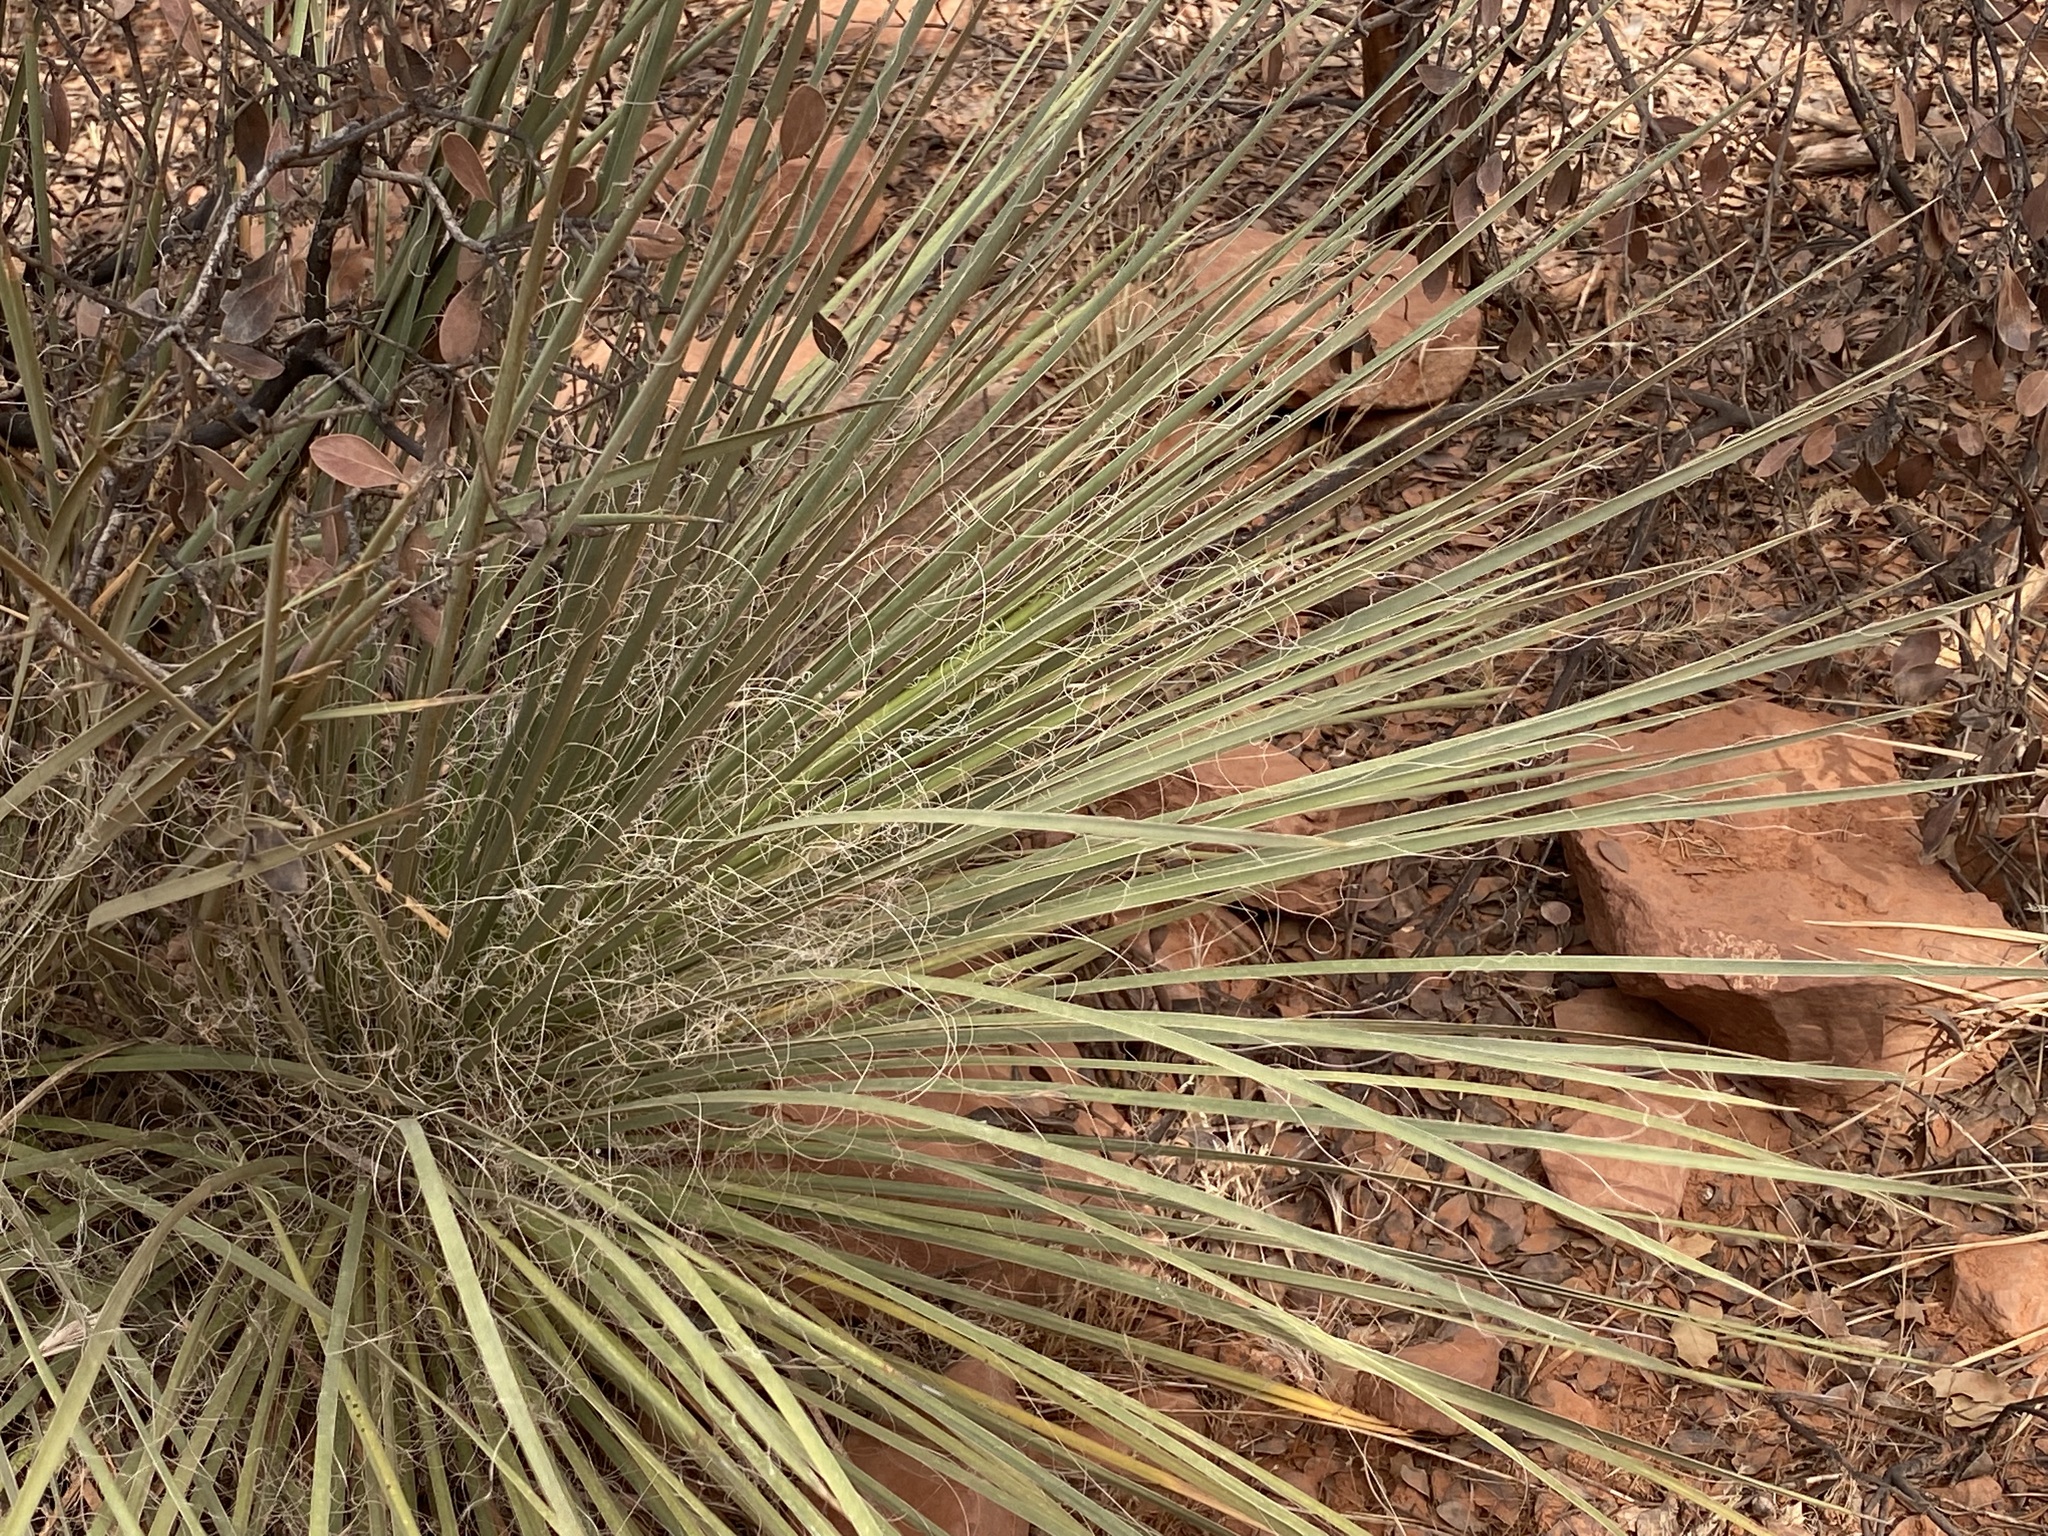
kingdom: Plantae
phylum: Tracheophyta
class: Liliopsida
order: Asparagales
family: Asparagaceae
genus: Yucca
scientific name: Yucca elata
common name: Palmella
